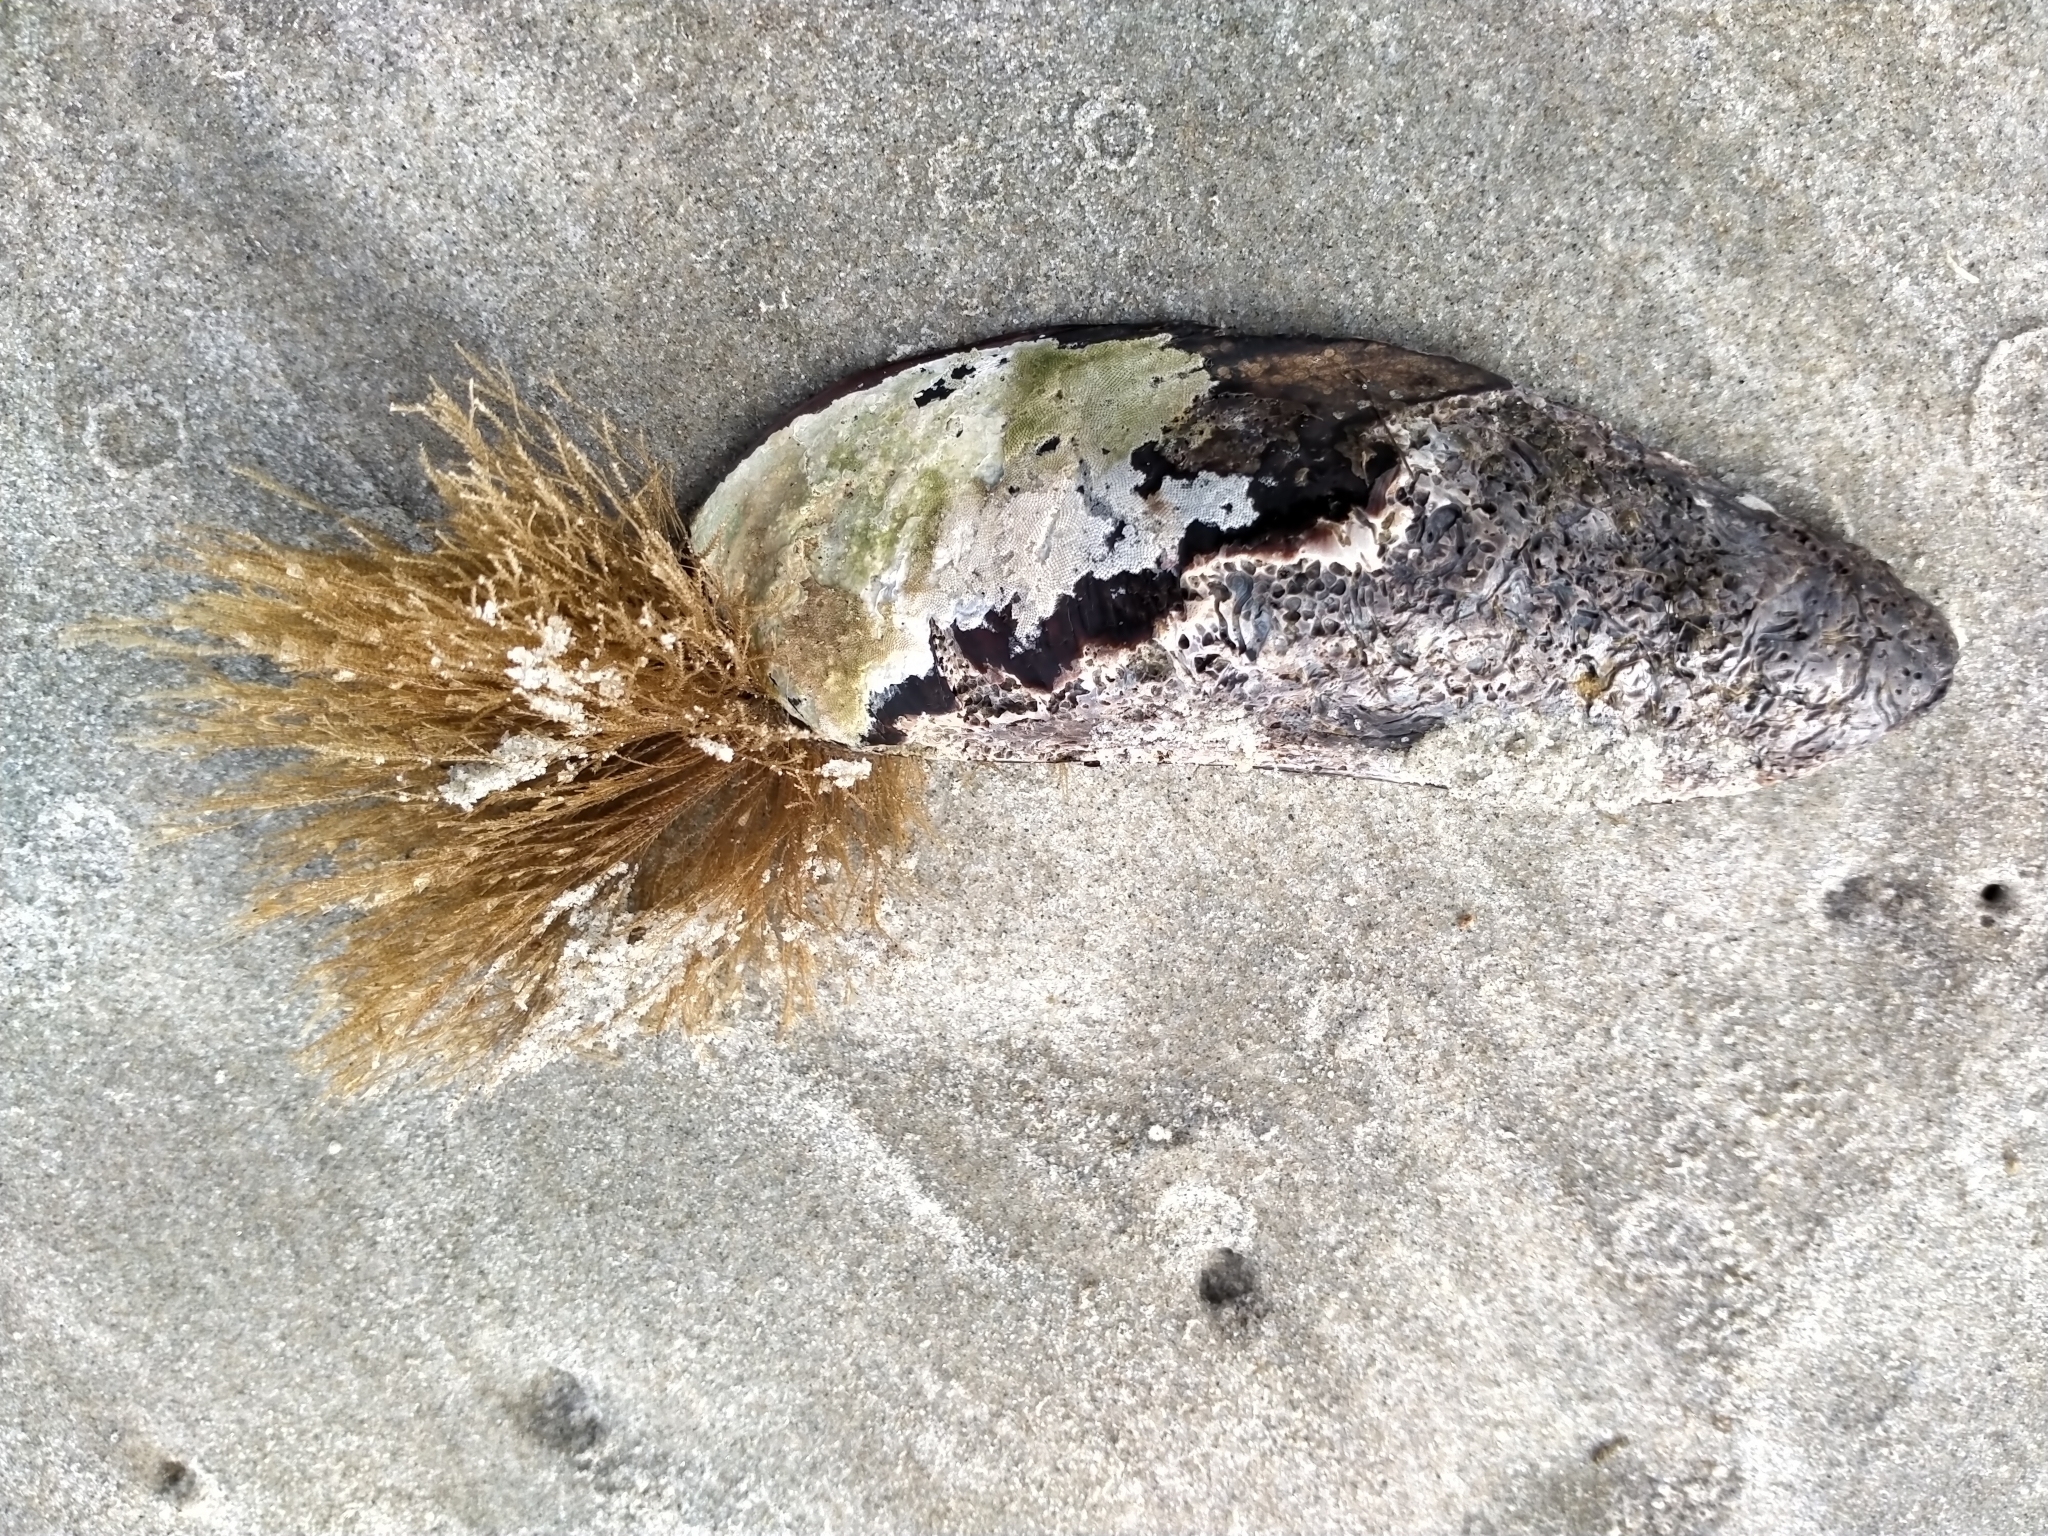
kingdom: Animalia
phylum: Cnidaria
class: Hydrozoa
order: Leptothecata
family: Sertulariidae
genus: Amphisbetia
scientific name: Amphisbetia bispinosa
